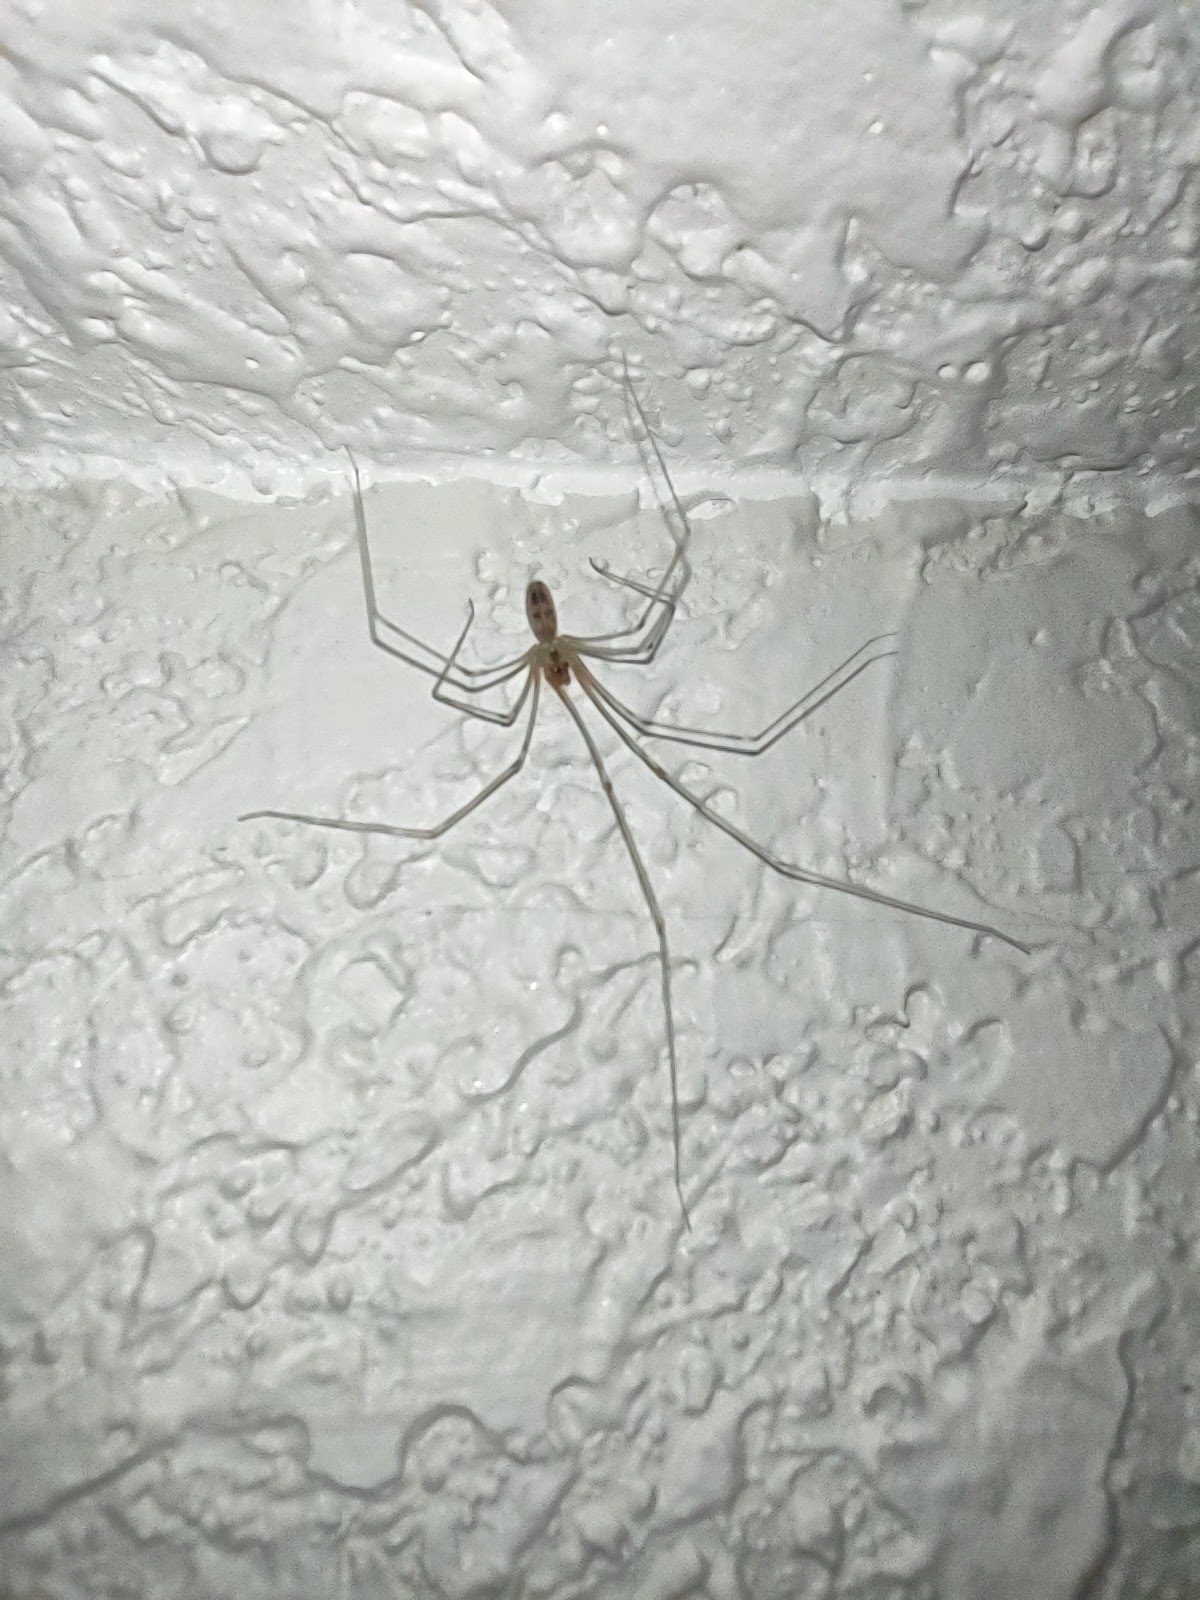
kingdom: Animalia
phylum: Arthropoda
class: Arachnida
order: Araneae
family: Pholcidae
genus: Pholcus
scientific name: Pholcus phalangioides
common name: Longbodied cellar spider
